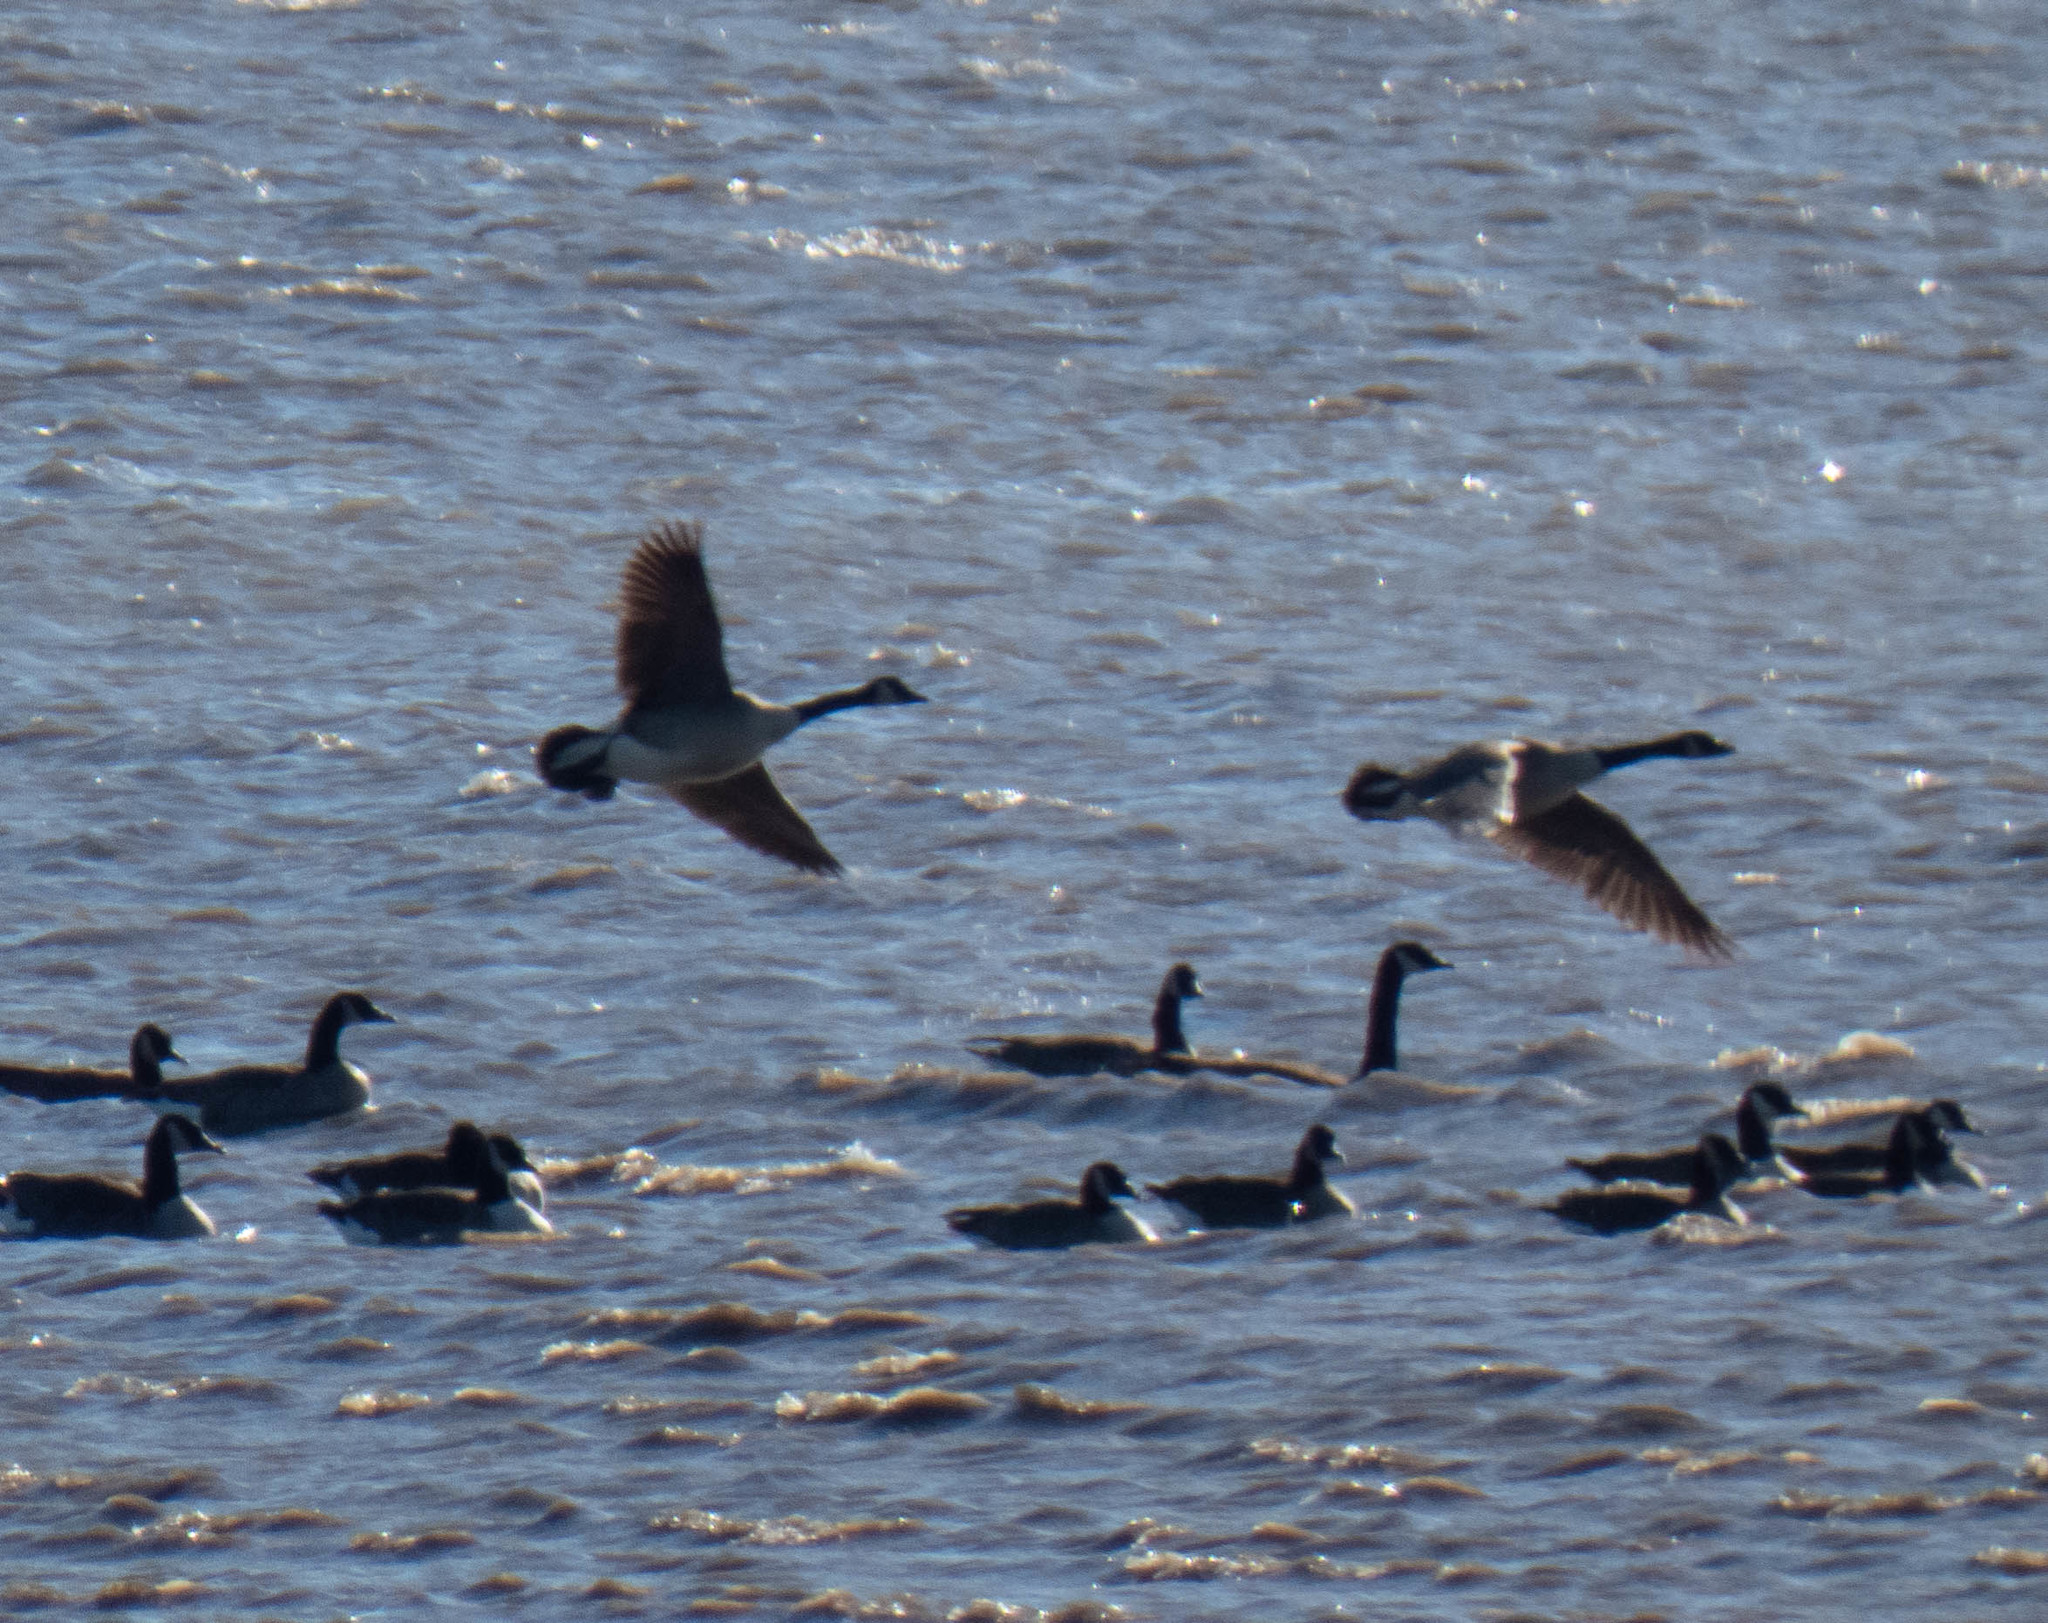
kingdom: Animalia
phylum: Chordata
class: Aves
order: Anseriformes
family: Anatidae
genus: Branta
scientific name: Branta canadensis
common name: Canada goose
